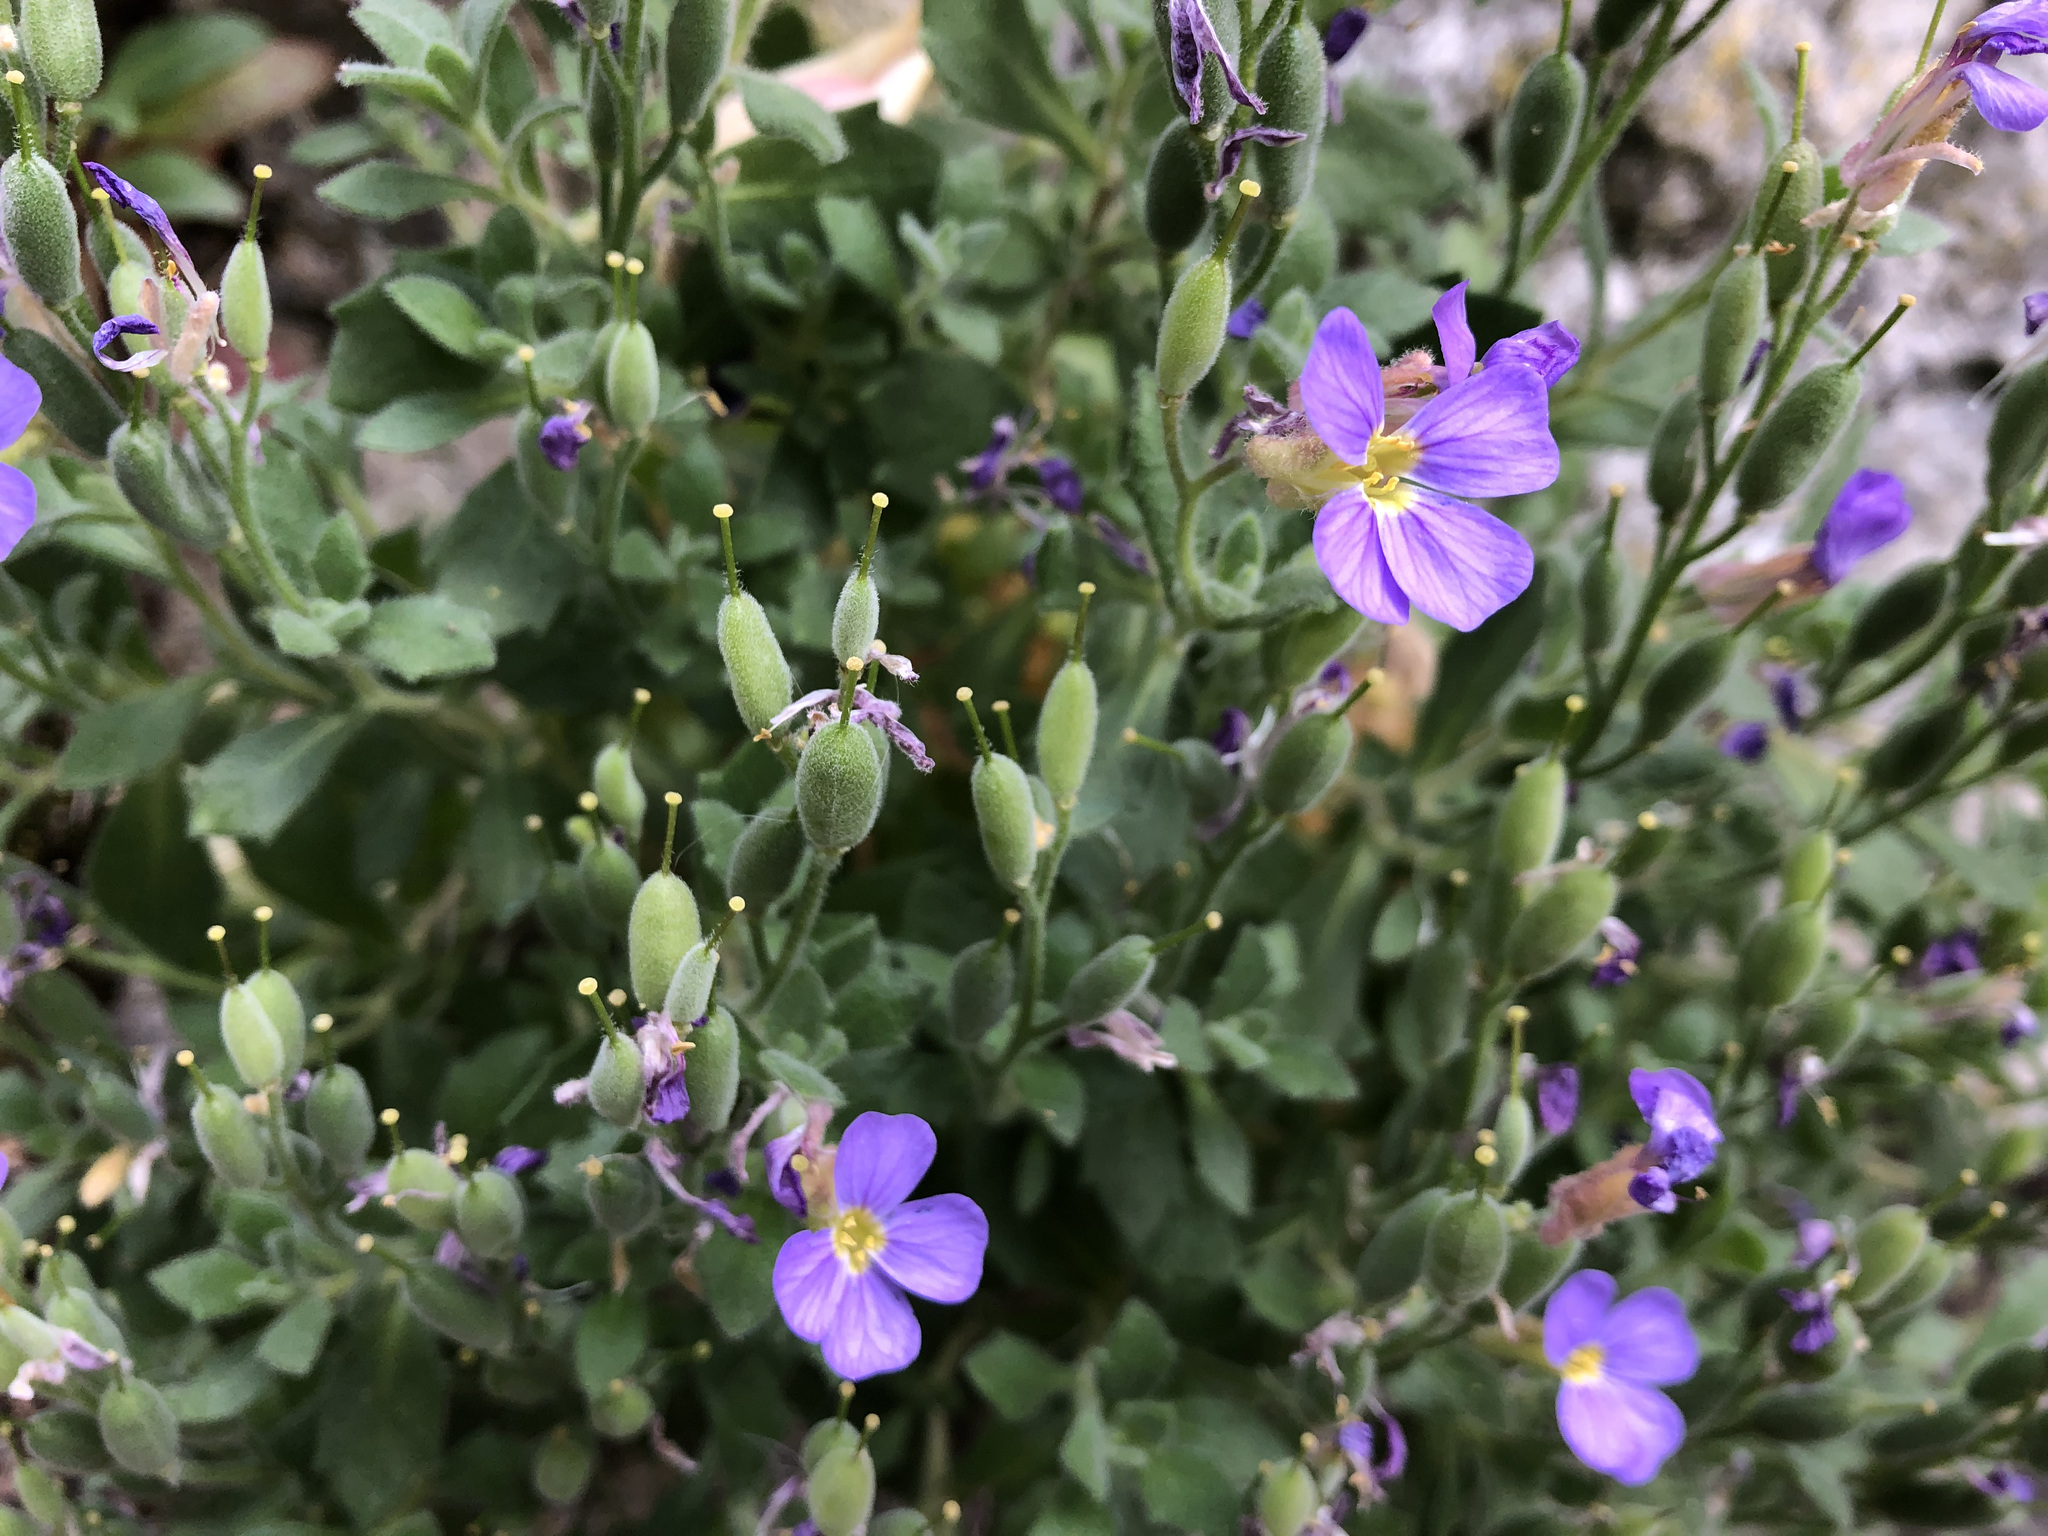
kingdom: Plantae
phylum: Tracheophyta
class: Magnoliopsida
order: Brassicales
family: Brassicaceae
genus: Aubrieta
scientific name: Aubrieta deltoidea
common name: Aubretia
